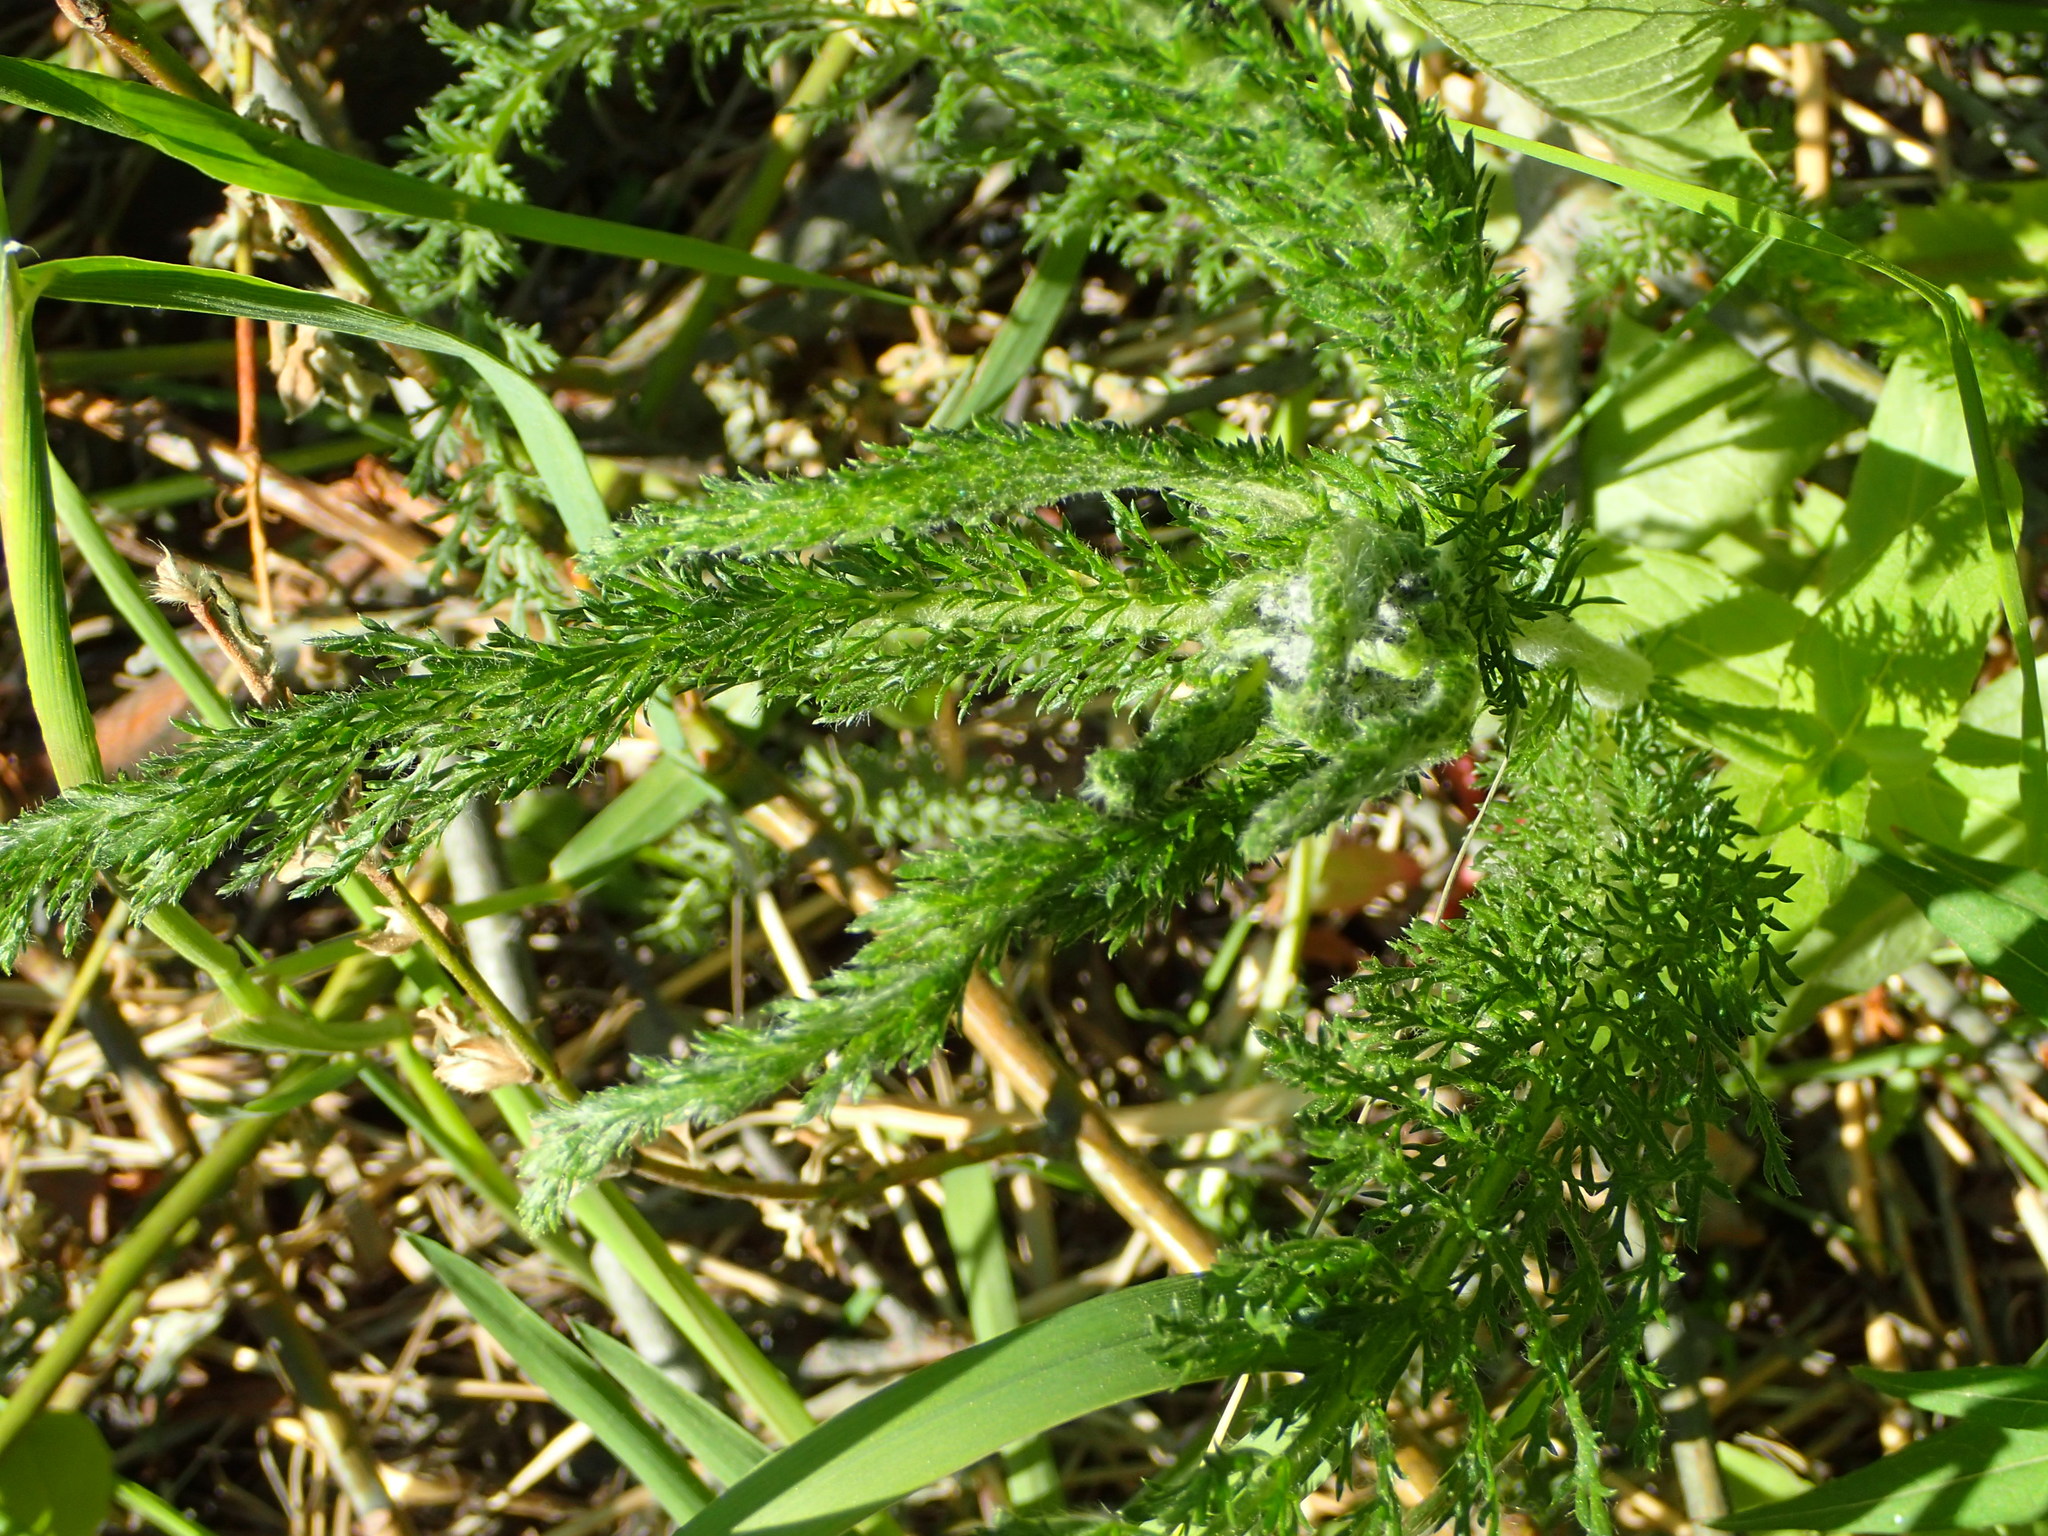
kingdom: Plantae
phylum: Tracheophyta
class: Magnoliopsida
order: Asterales
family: Asteraceae
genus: Achillea
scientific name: Achillea millefolium
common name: Yarrow
